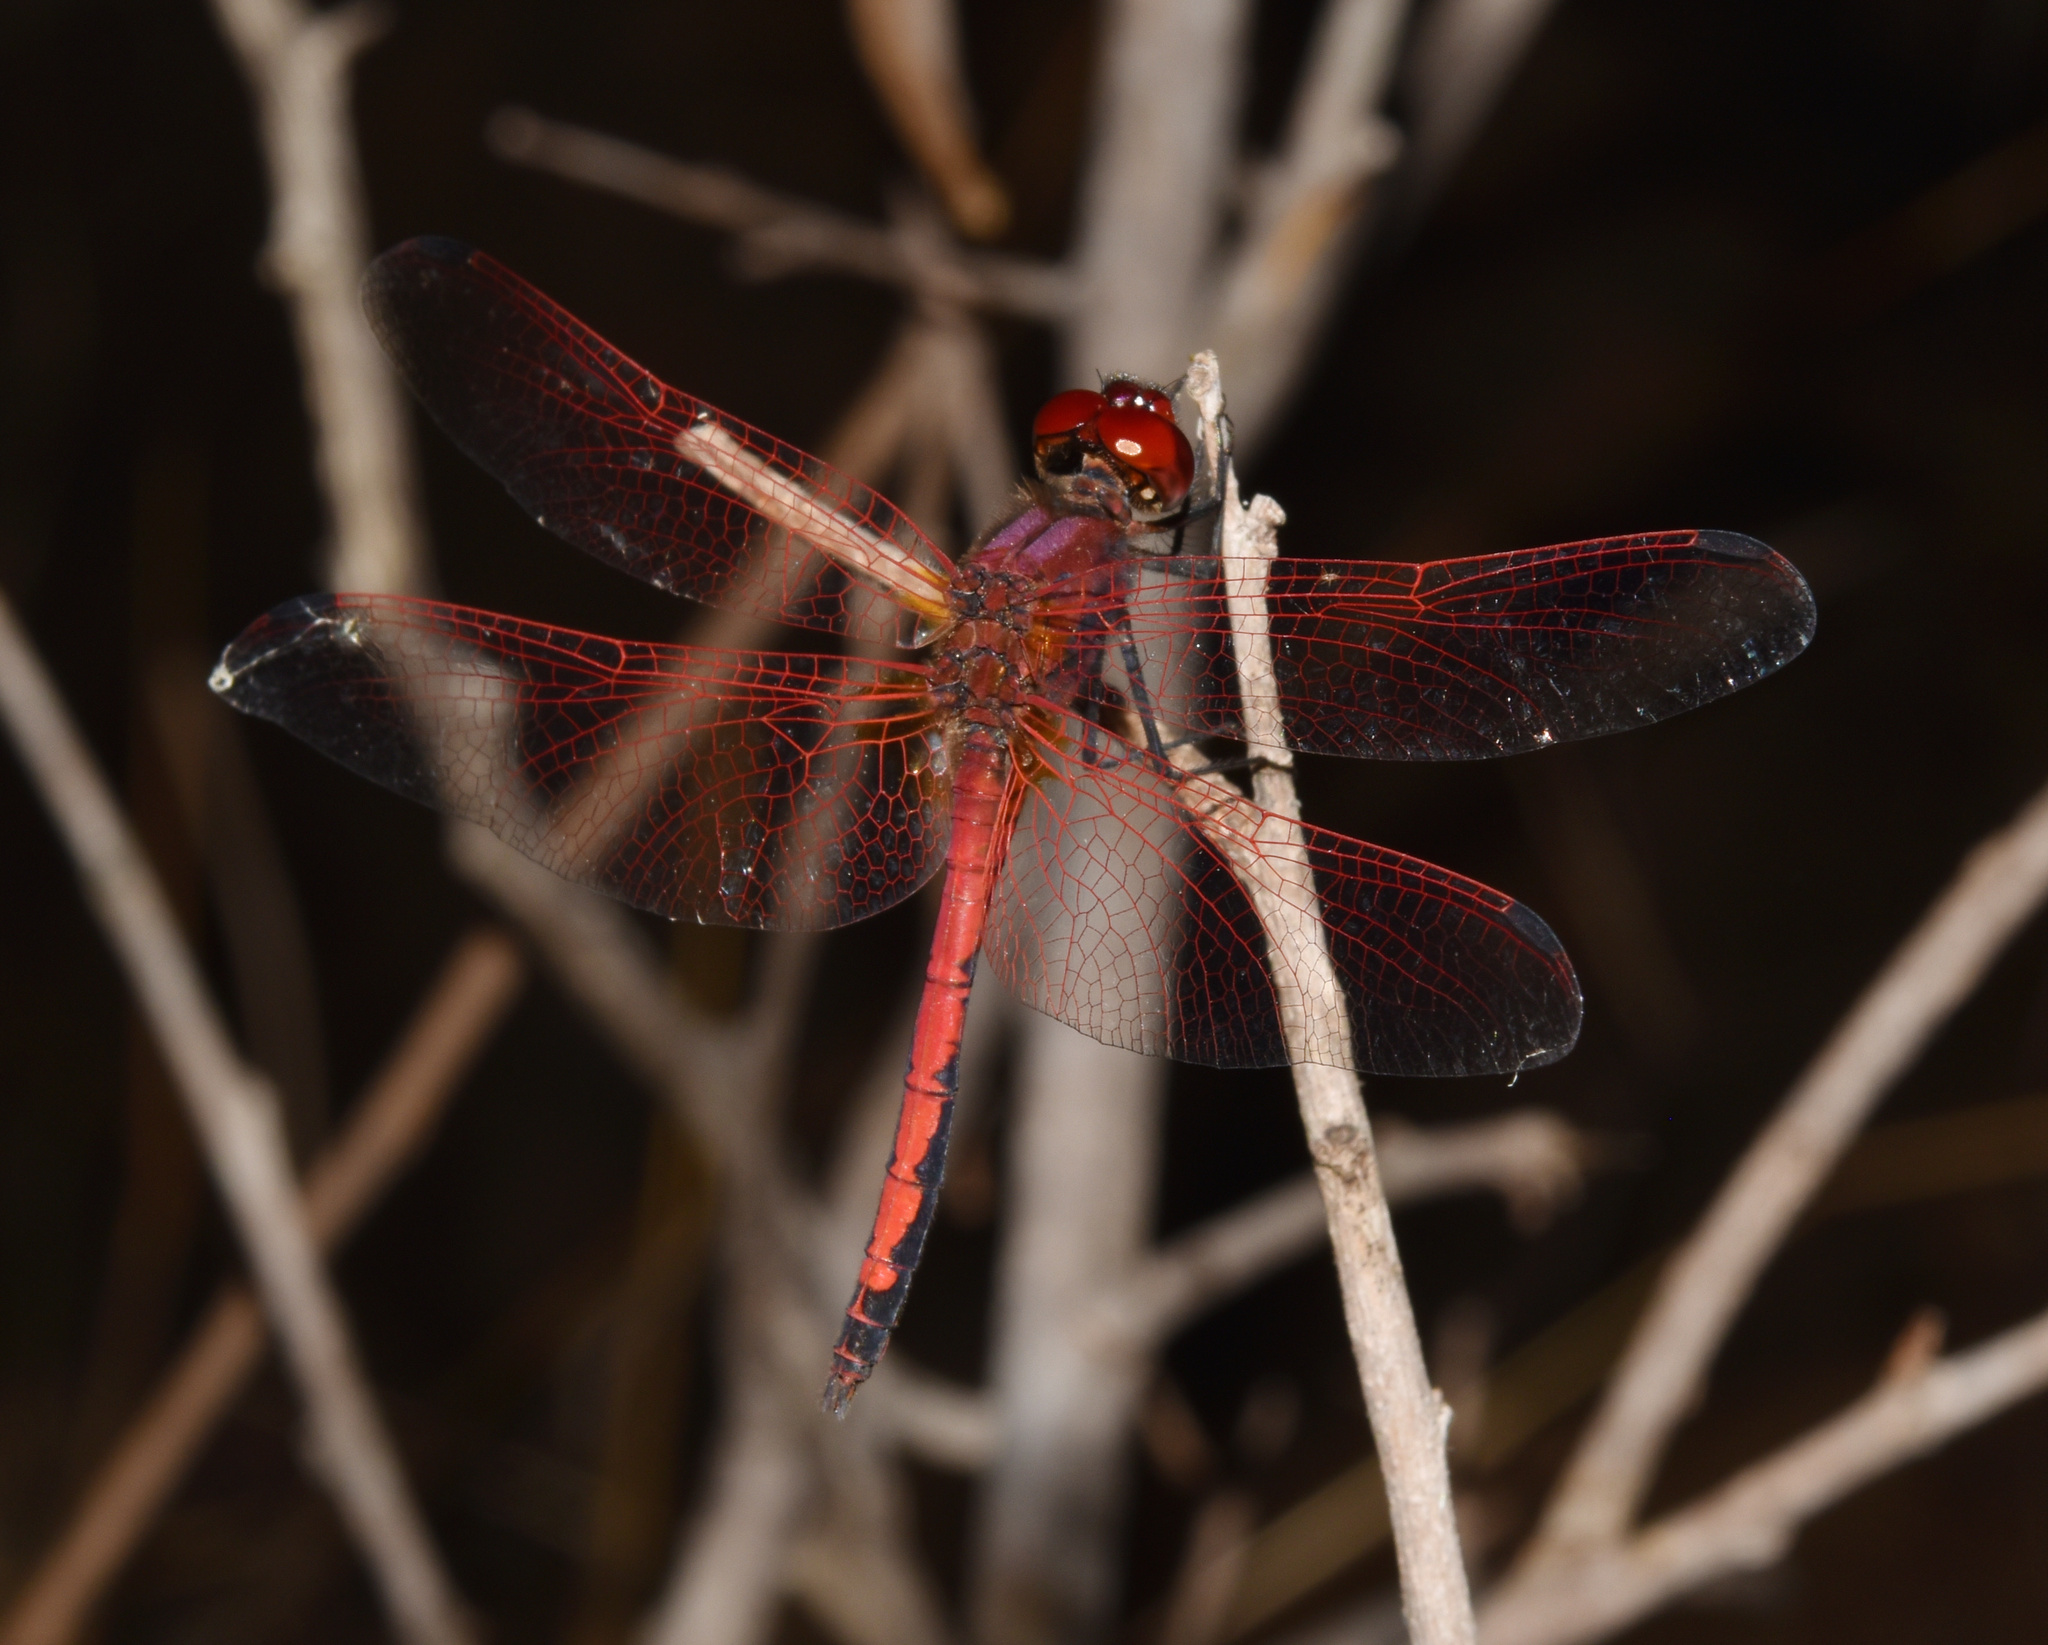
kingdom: Animalia
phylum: Arthropoda
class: Insecta
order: Odonata
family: Libellulidae
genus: Trithemis
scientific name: Trithemis arteriosa
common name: Red-veined dropwing
